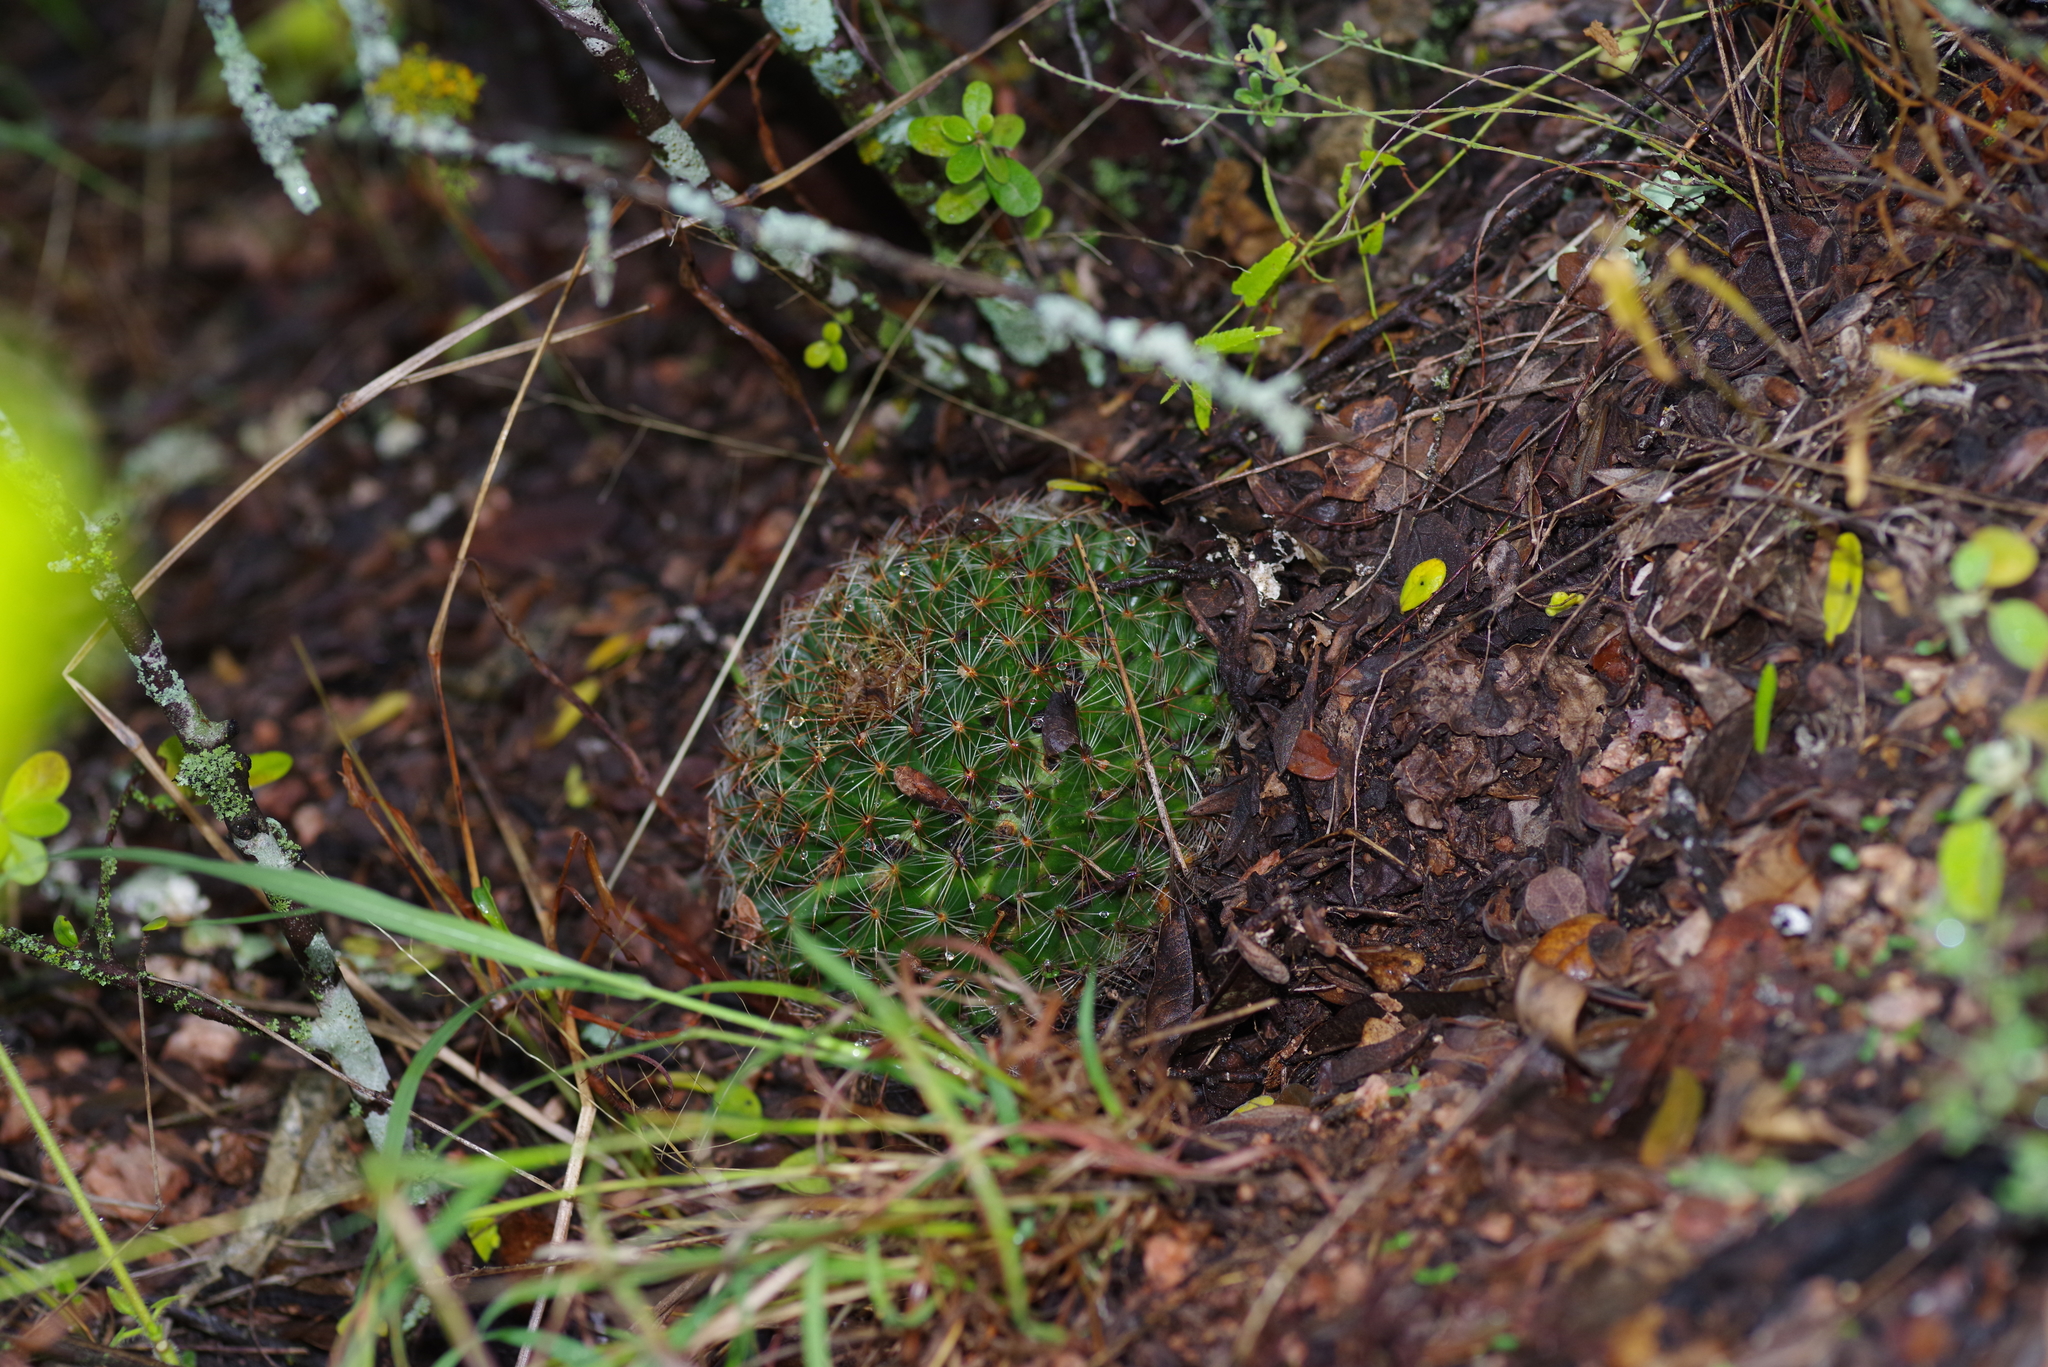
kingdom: Plantae
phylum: Tracheophyta
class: Magnoliopsida
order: Caryophyllales
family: Cactaceae
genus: Mammillaria
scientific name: Mammillaria heyderi
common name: Little nipple cactus
